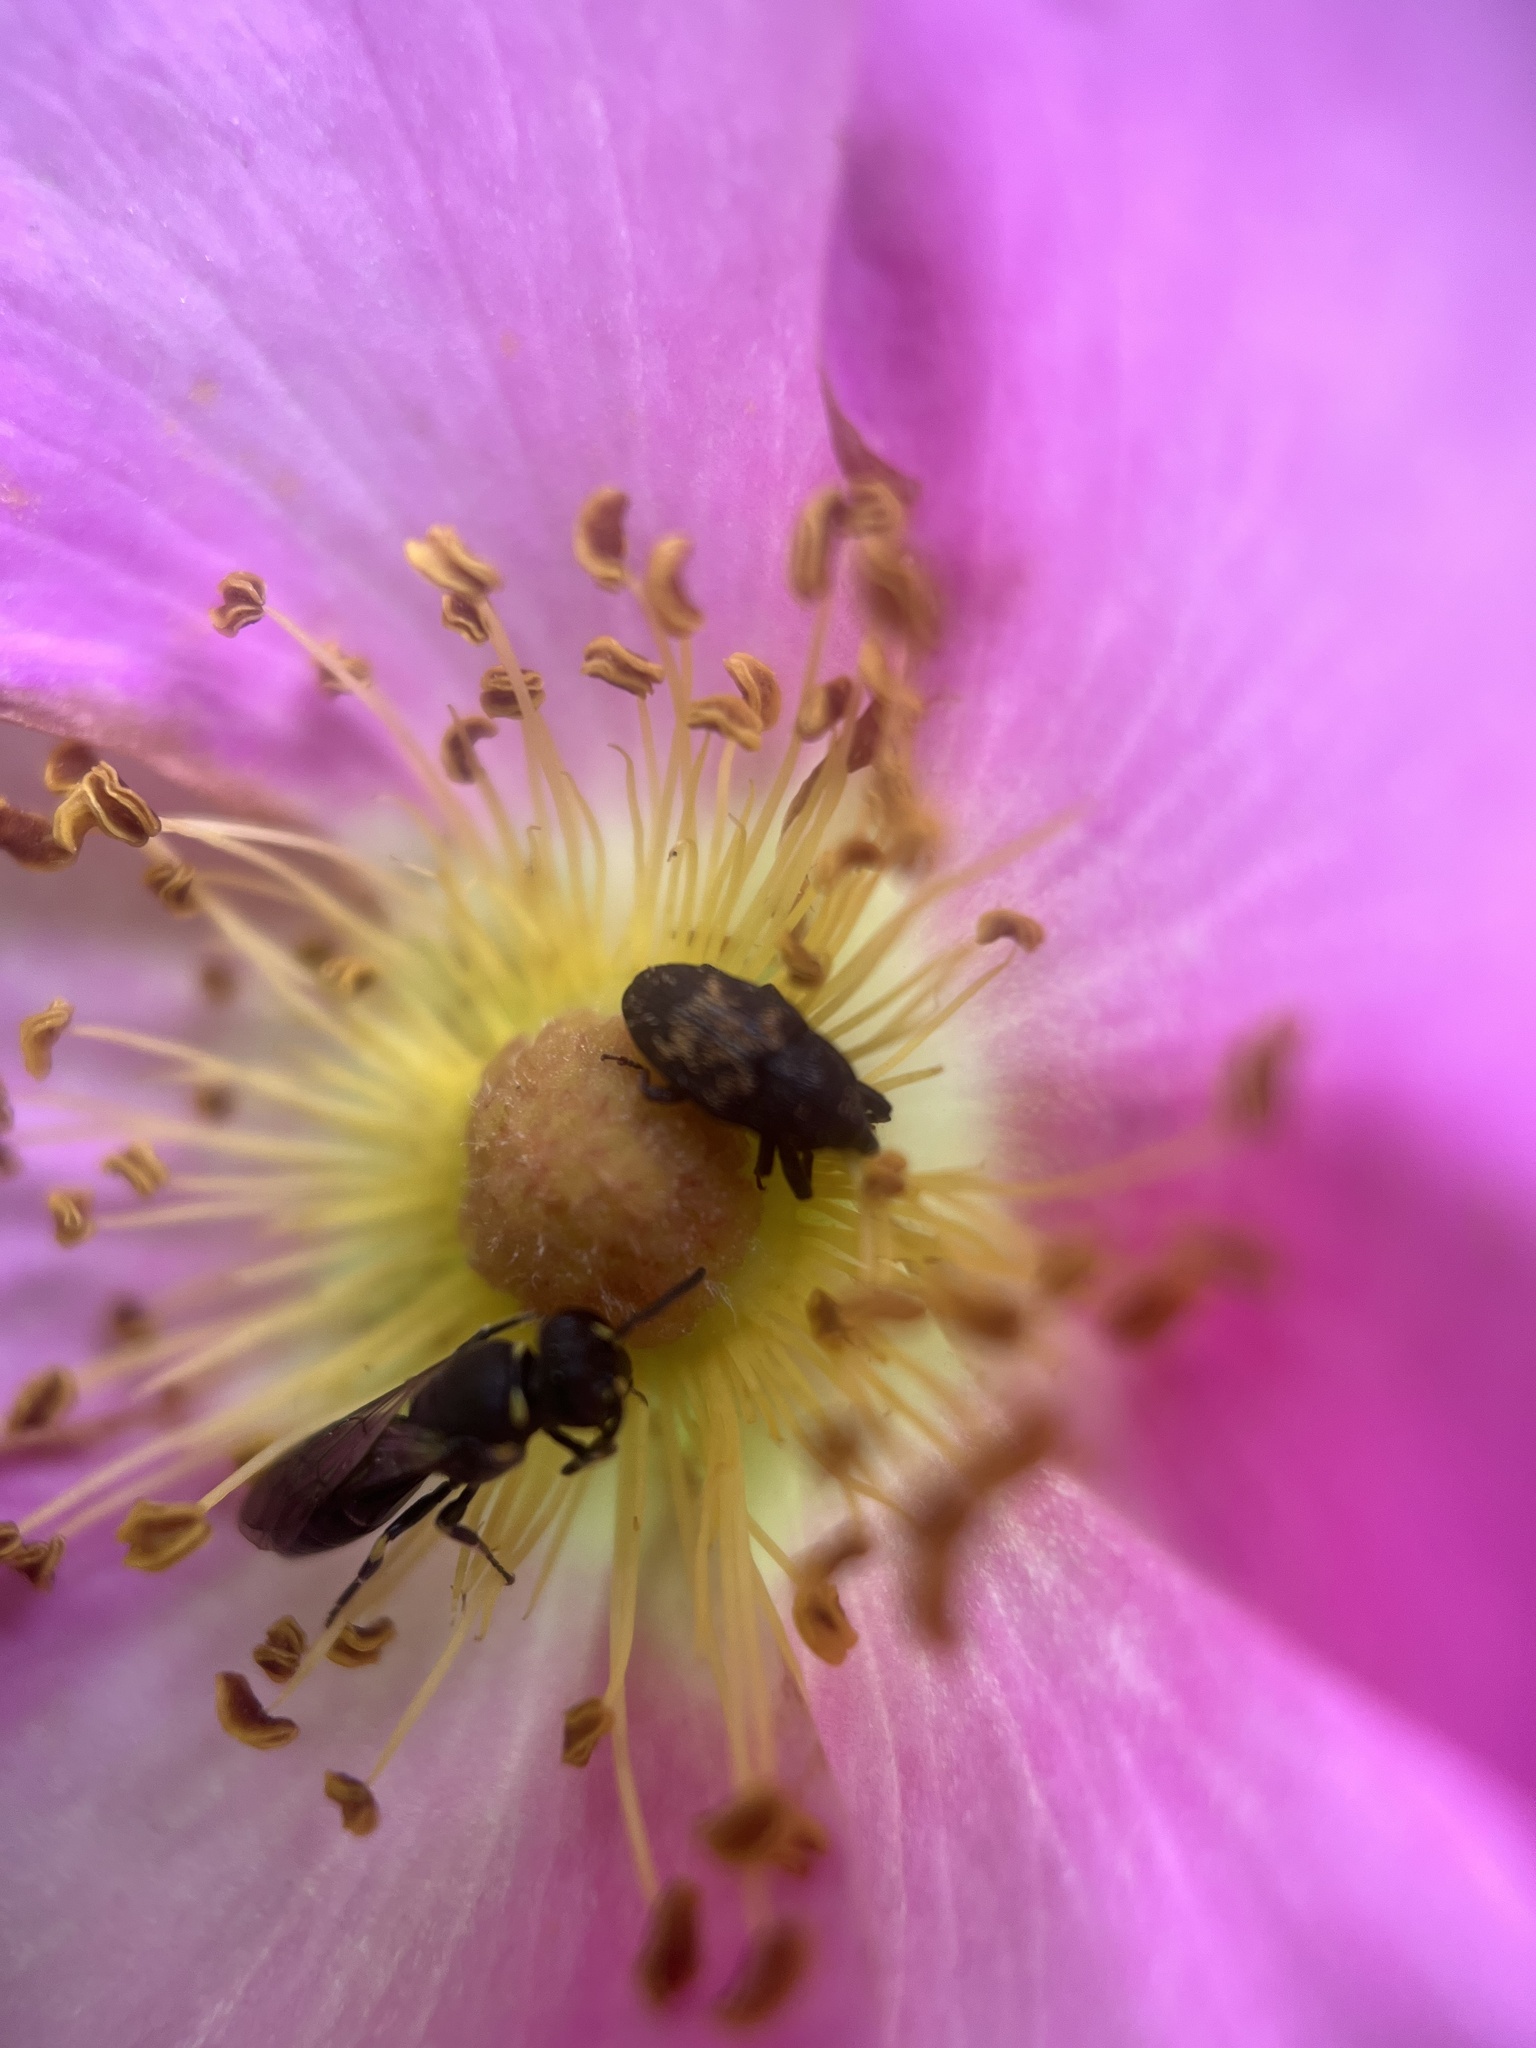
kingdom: Animalia
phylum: Arthropoda
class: Insecta
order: Coleoptera
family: Curculionidae
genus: Glyptobaris
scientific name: Glyptobaris lecontei
